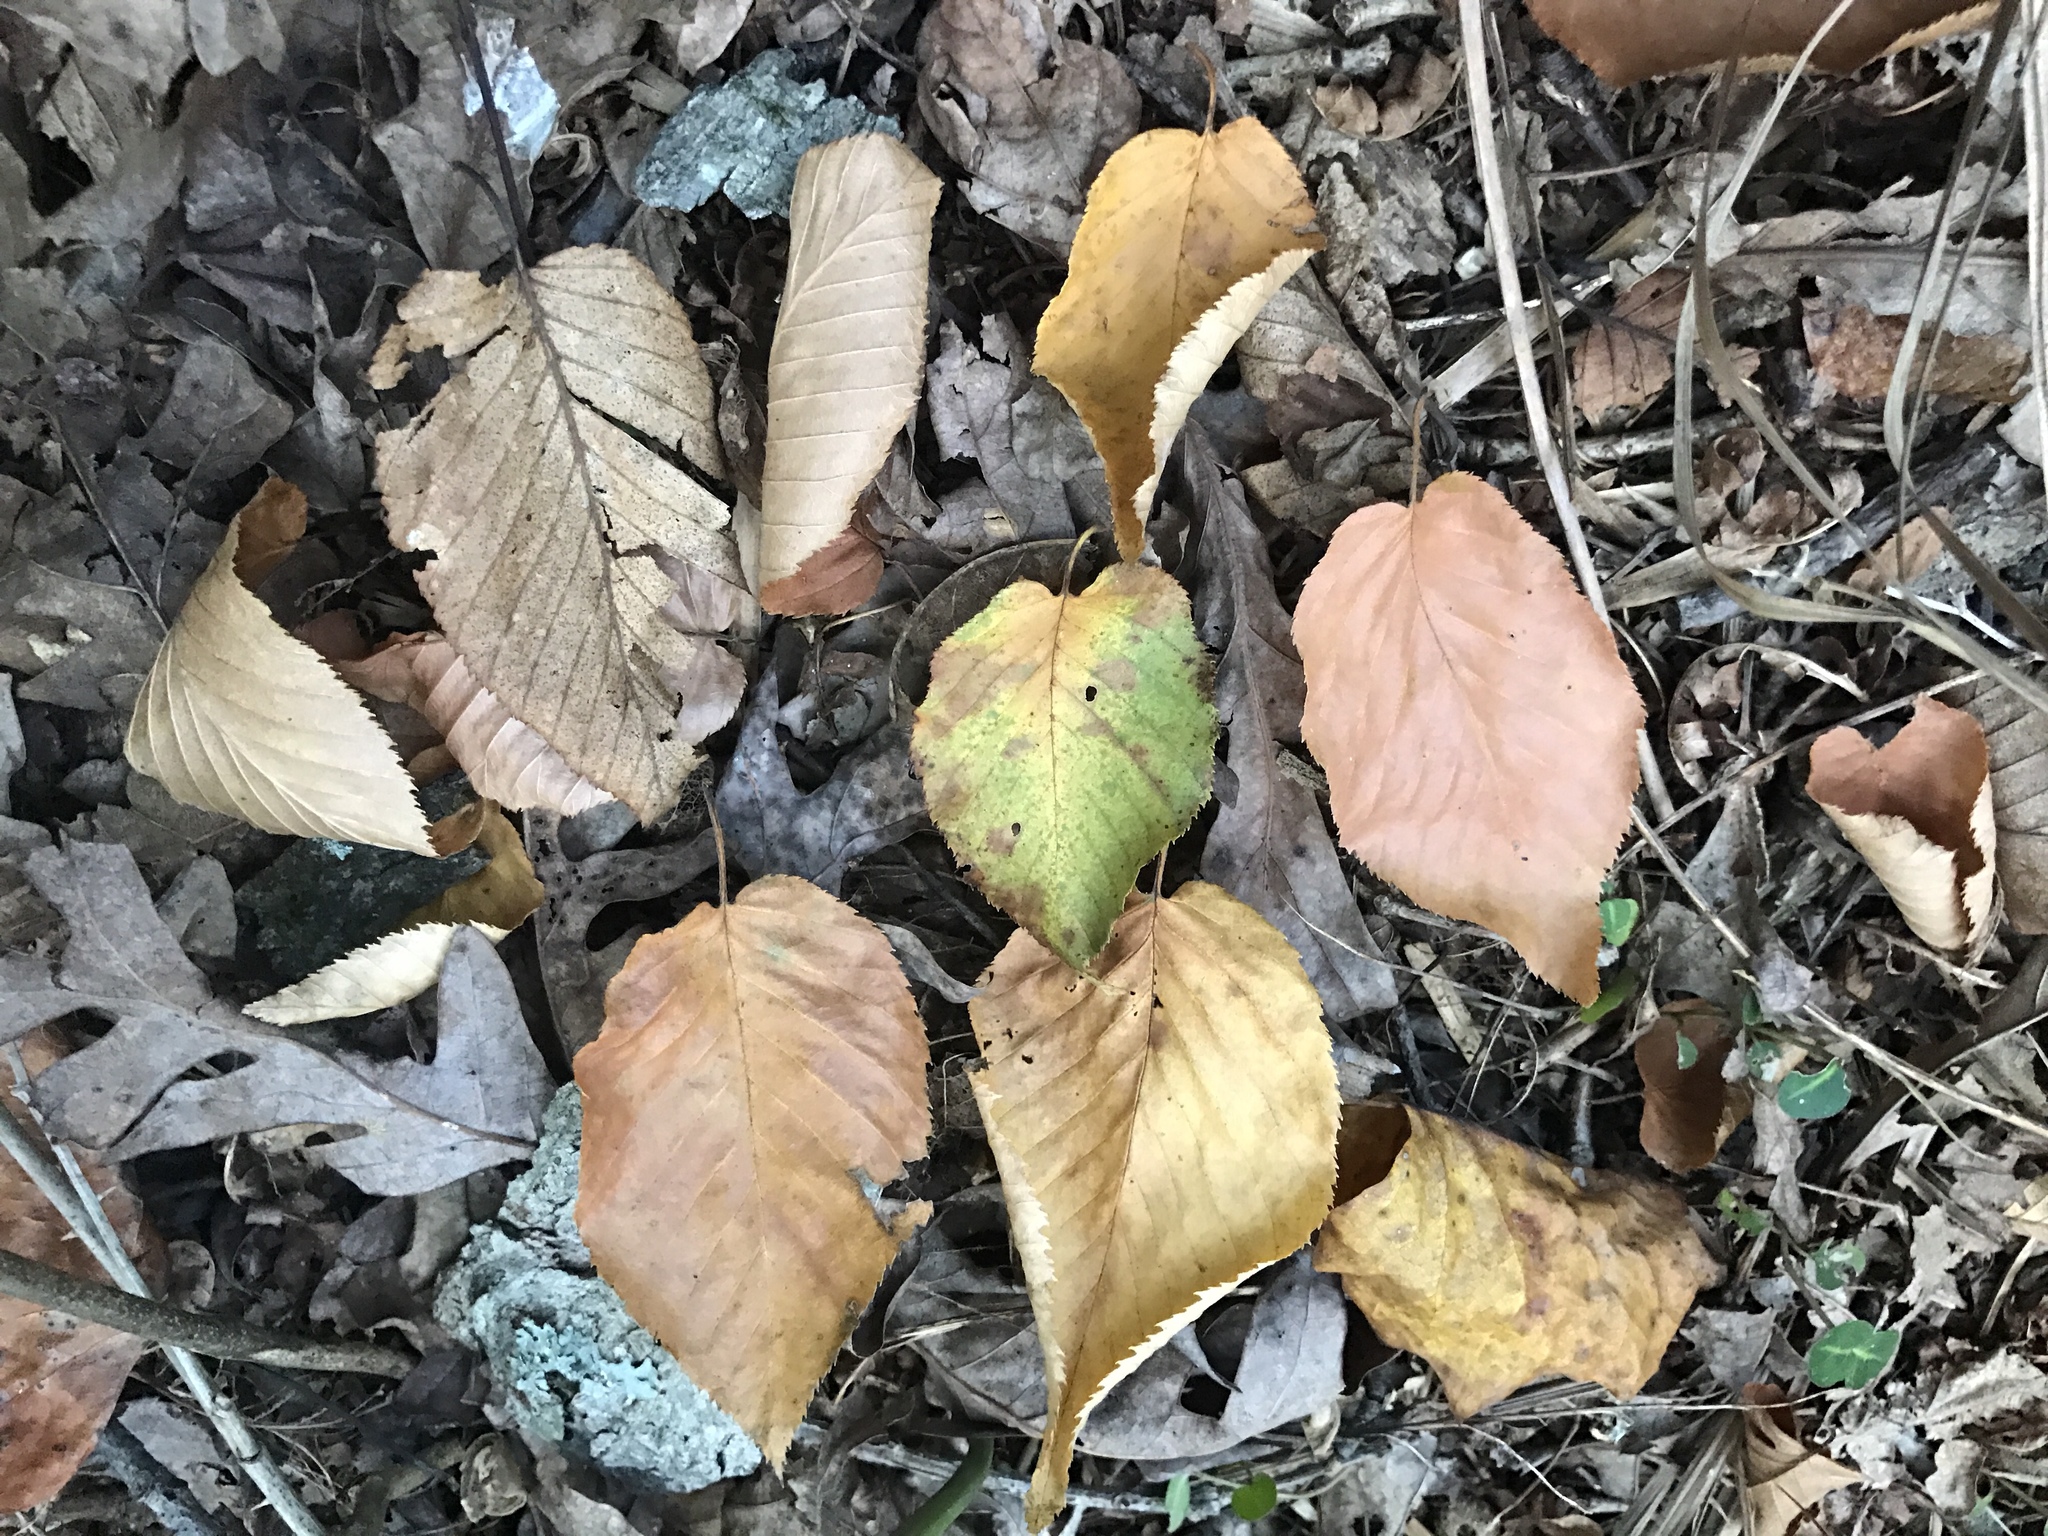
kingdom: Plantae
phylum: Tracheophyta
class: Magnoliopsida
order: Fagales
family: Betulaceae
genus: Betula
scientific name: Betula lenta
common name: Black birch
